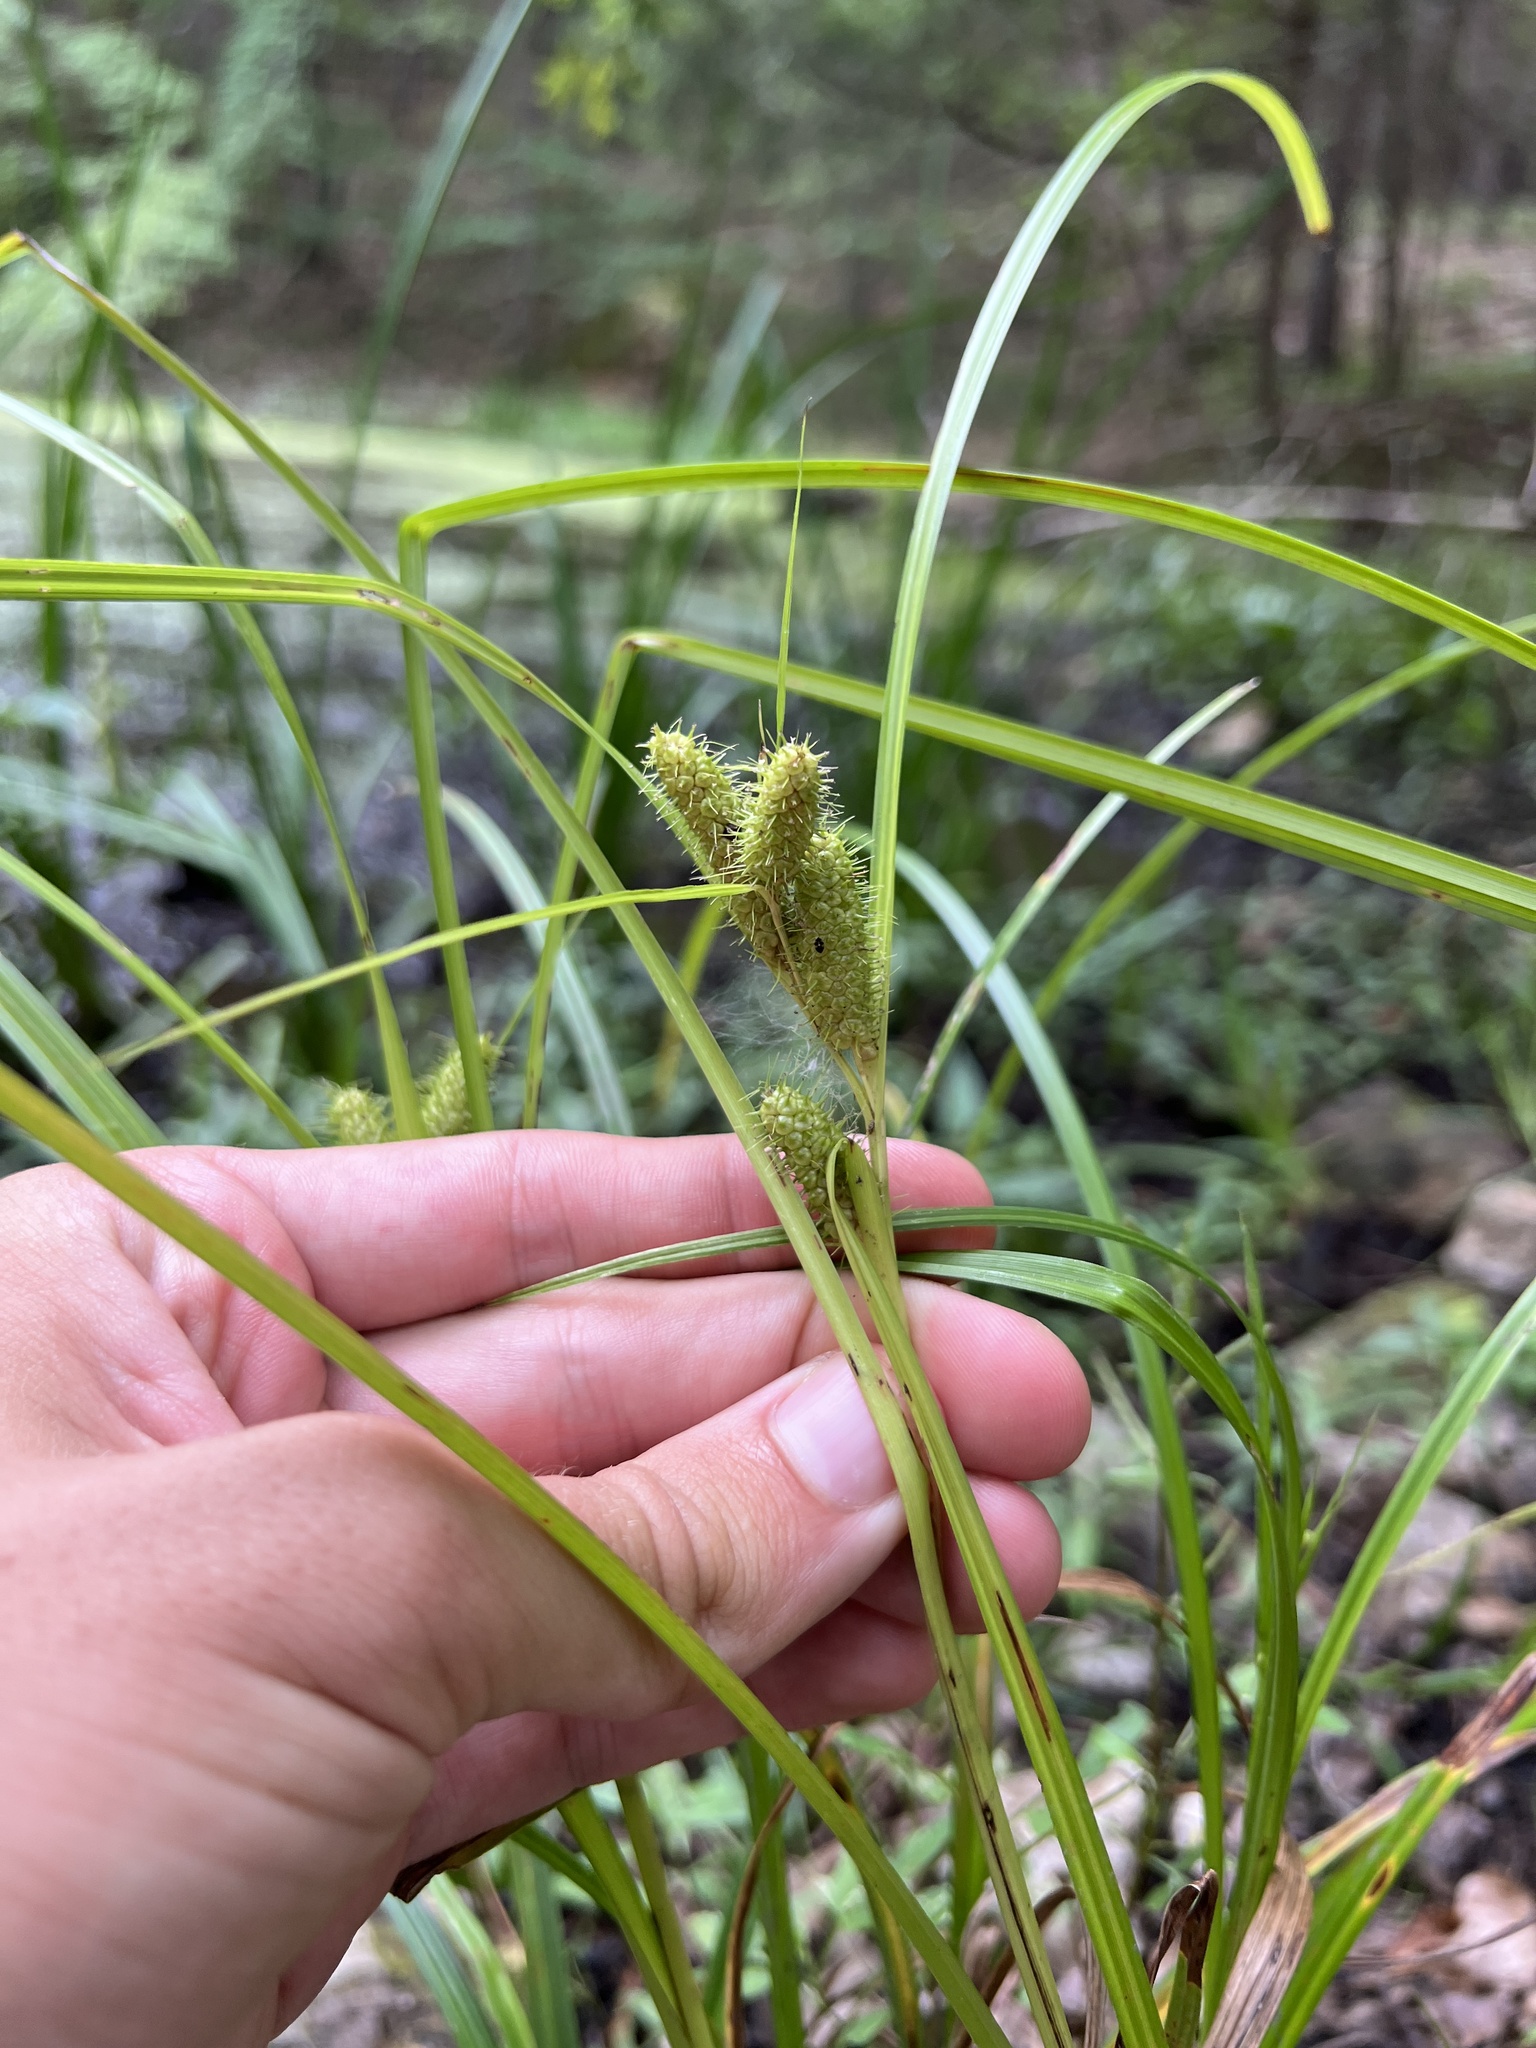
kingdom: Plantae
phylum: Tracheophyta
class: Liliopsida
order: Poales
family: Cyperaceae
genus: Carex
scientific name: Carex frankii
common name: Frank's sedge
